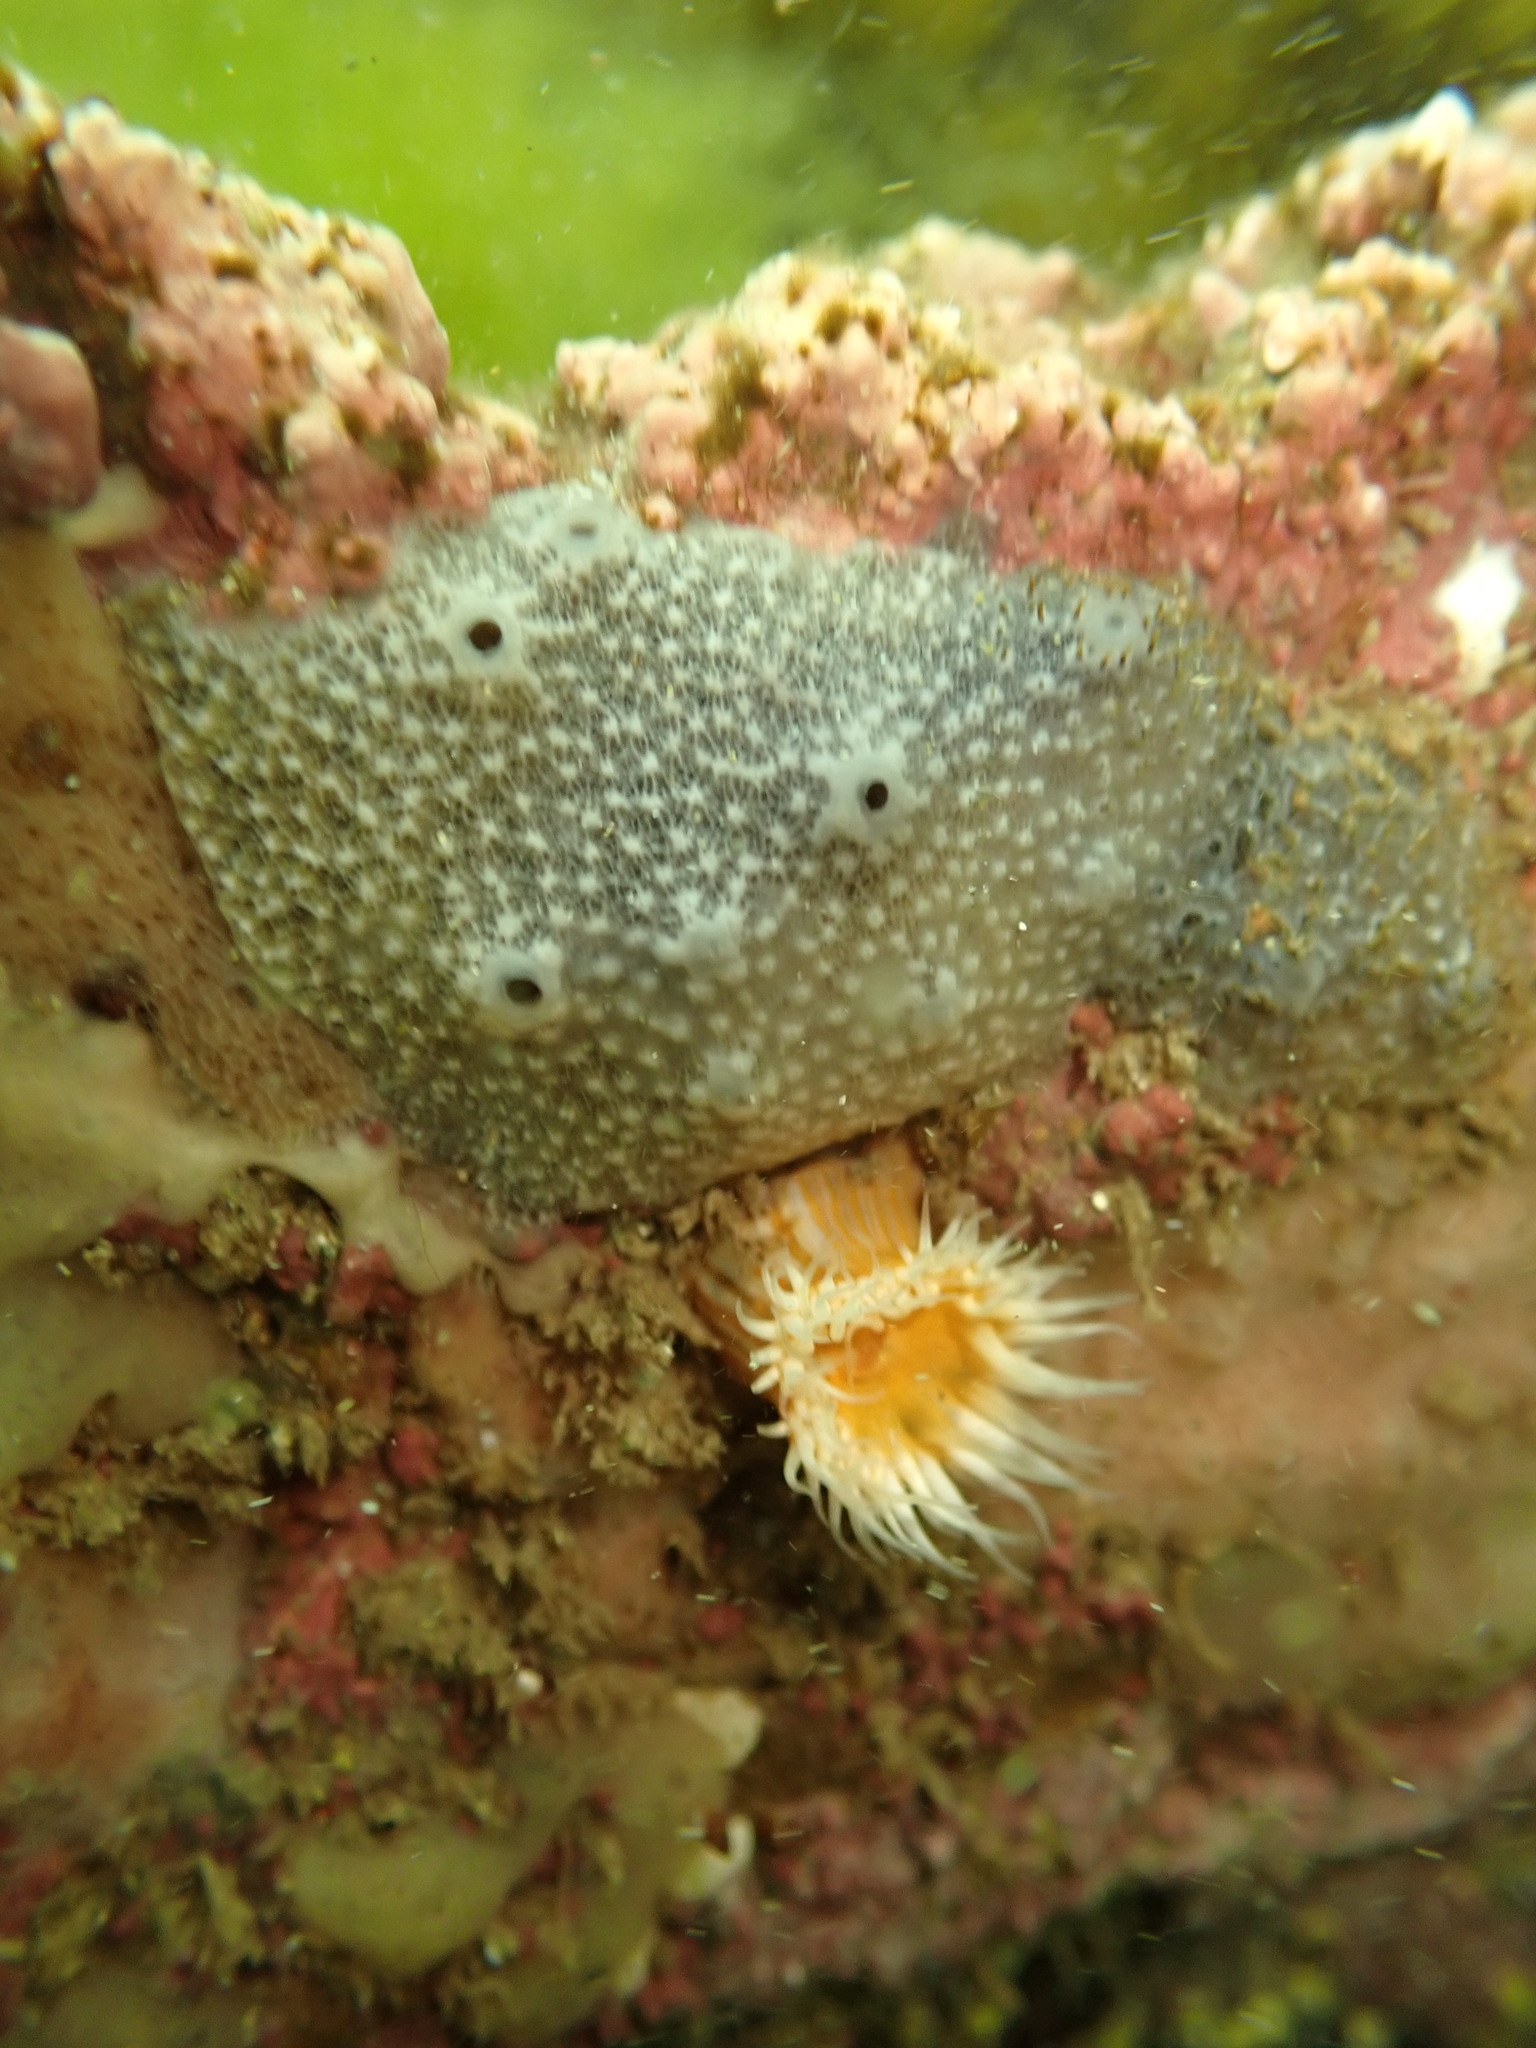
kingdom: Animalia
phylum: Cnidaria
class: Anthozoa
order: Actiniaria
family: Sagartiidae
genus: Anthothoe
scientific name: Anthothoe albocincta
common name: Orange striped anemone
